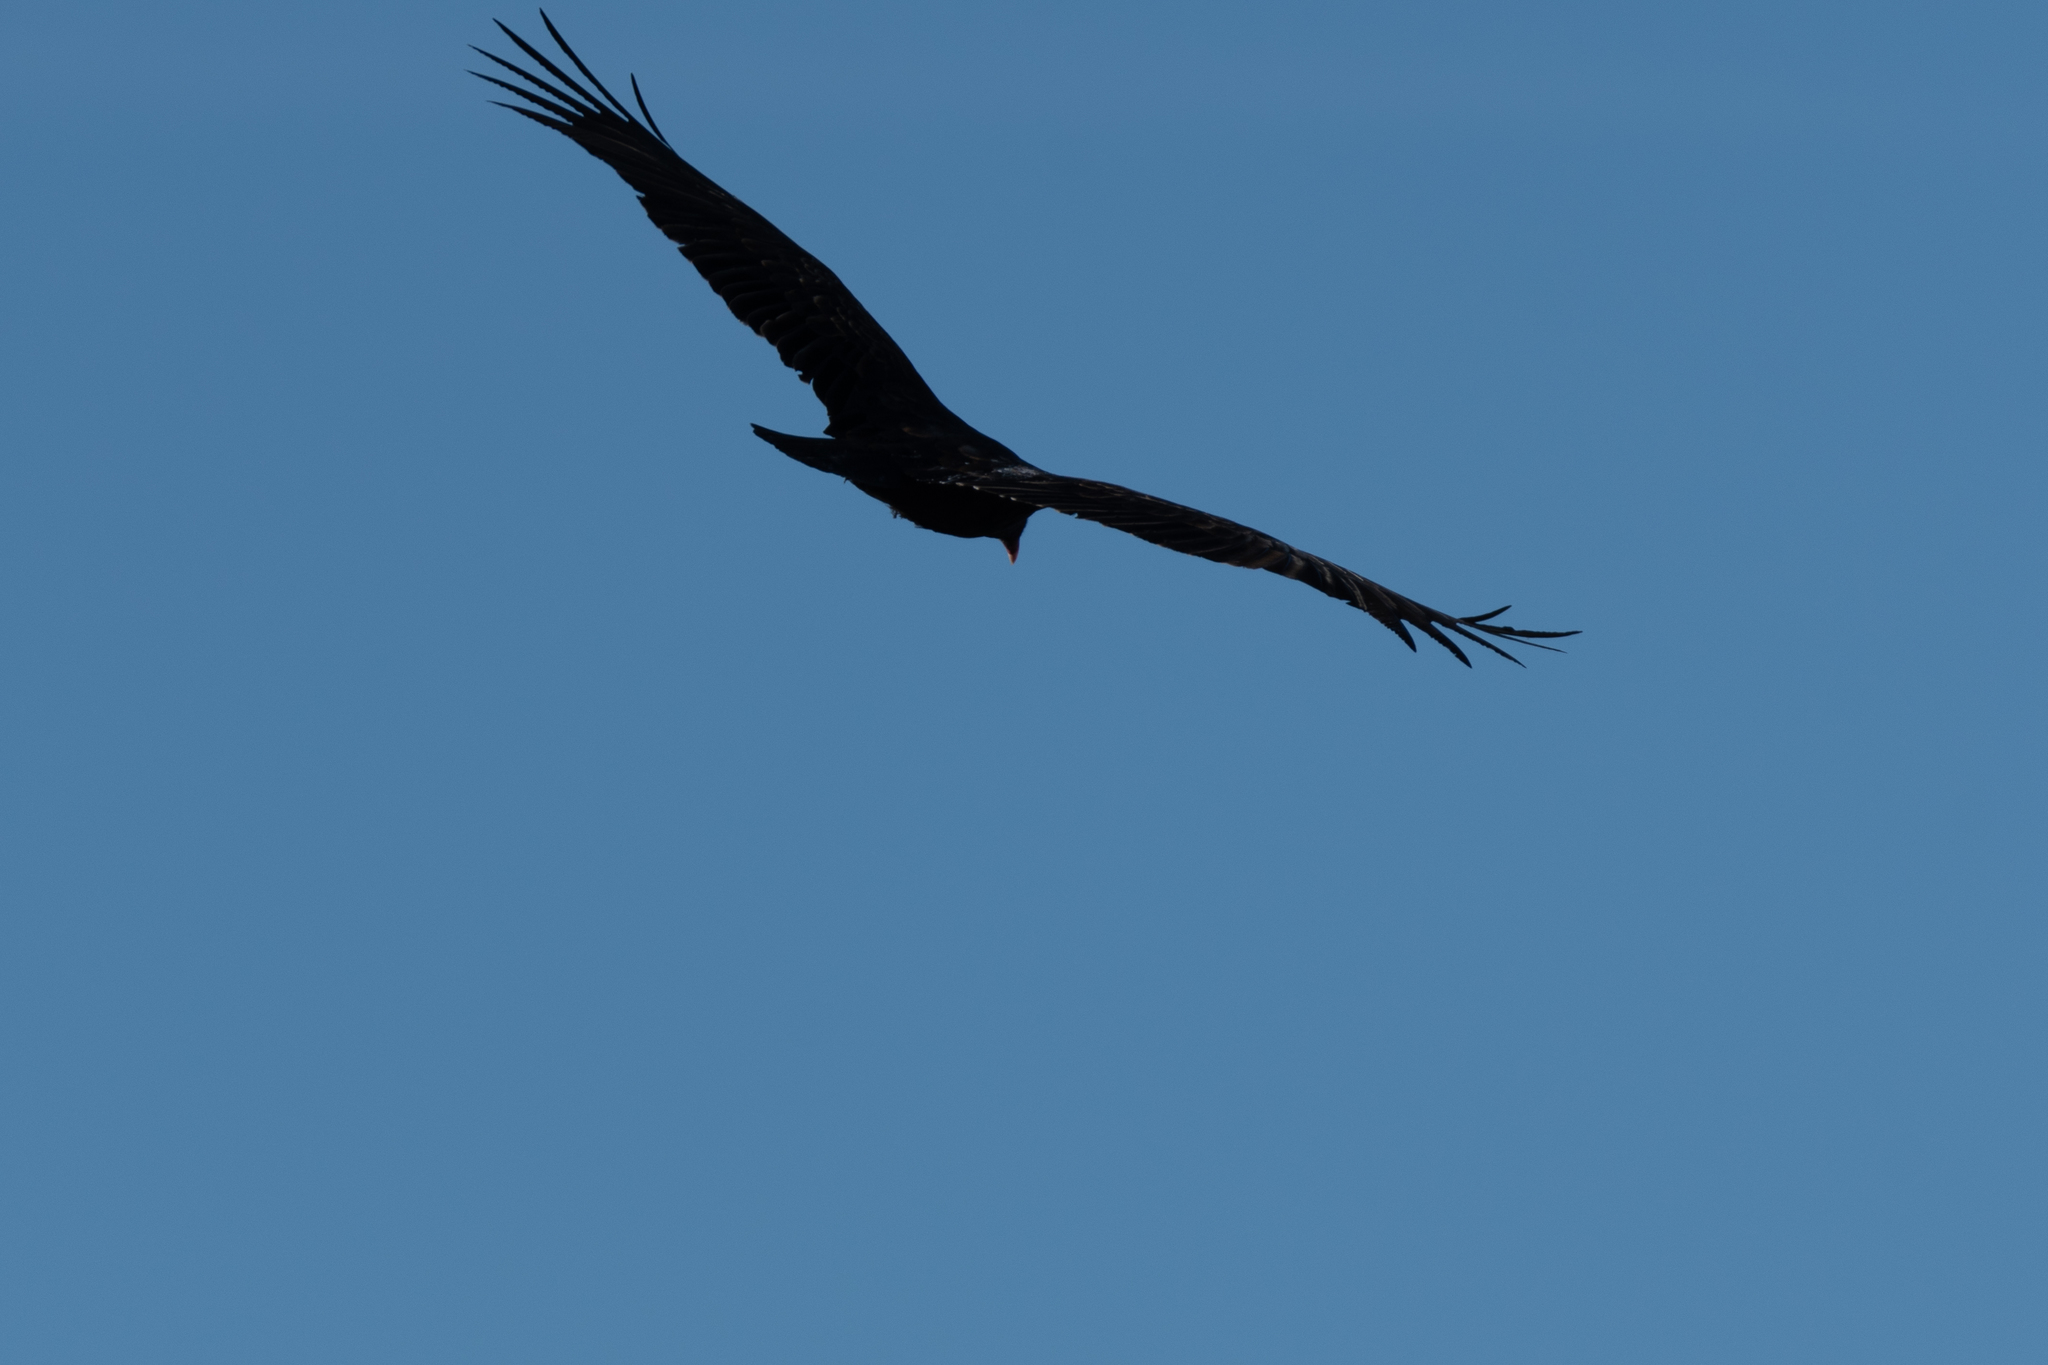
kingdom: Animalia
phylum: Chordata
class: Aves
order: Accipitriformes
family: Cathartidae
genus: Cathartes
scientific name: Cathartes aura
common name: Turkey vulture
